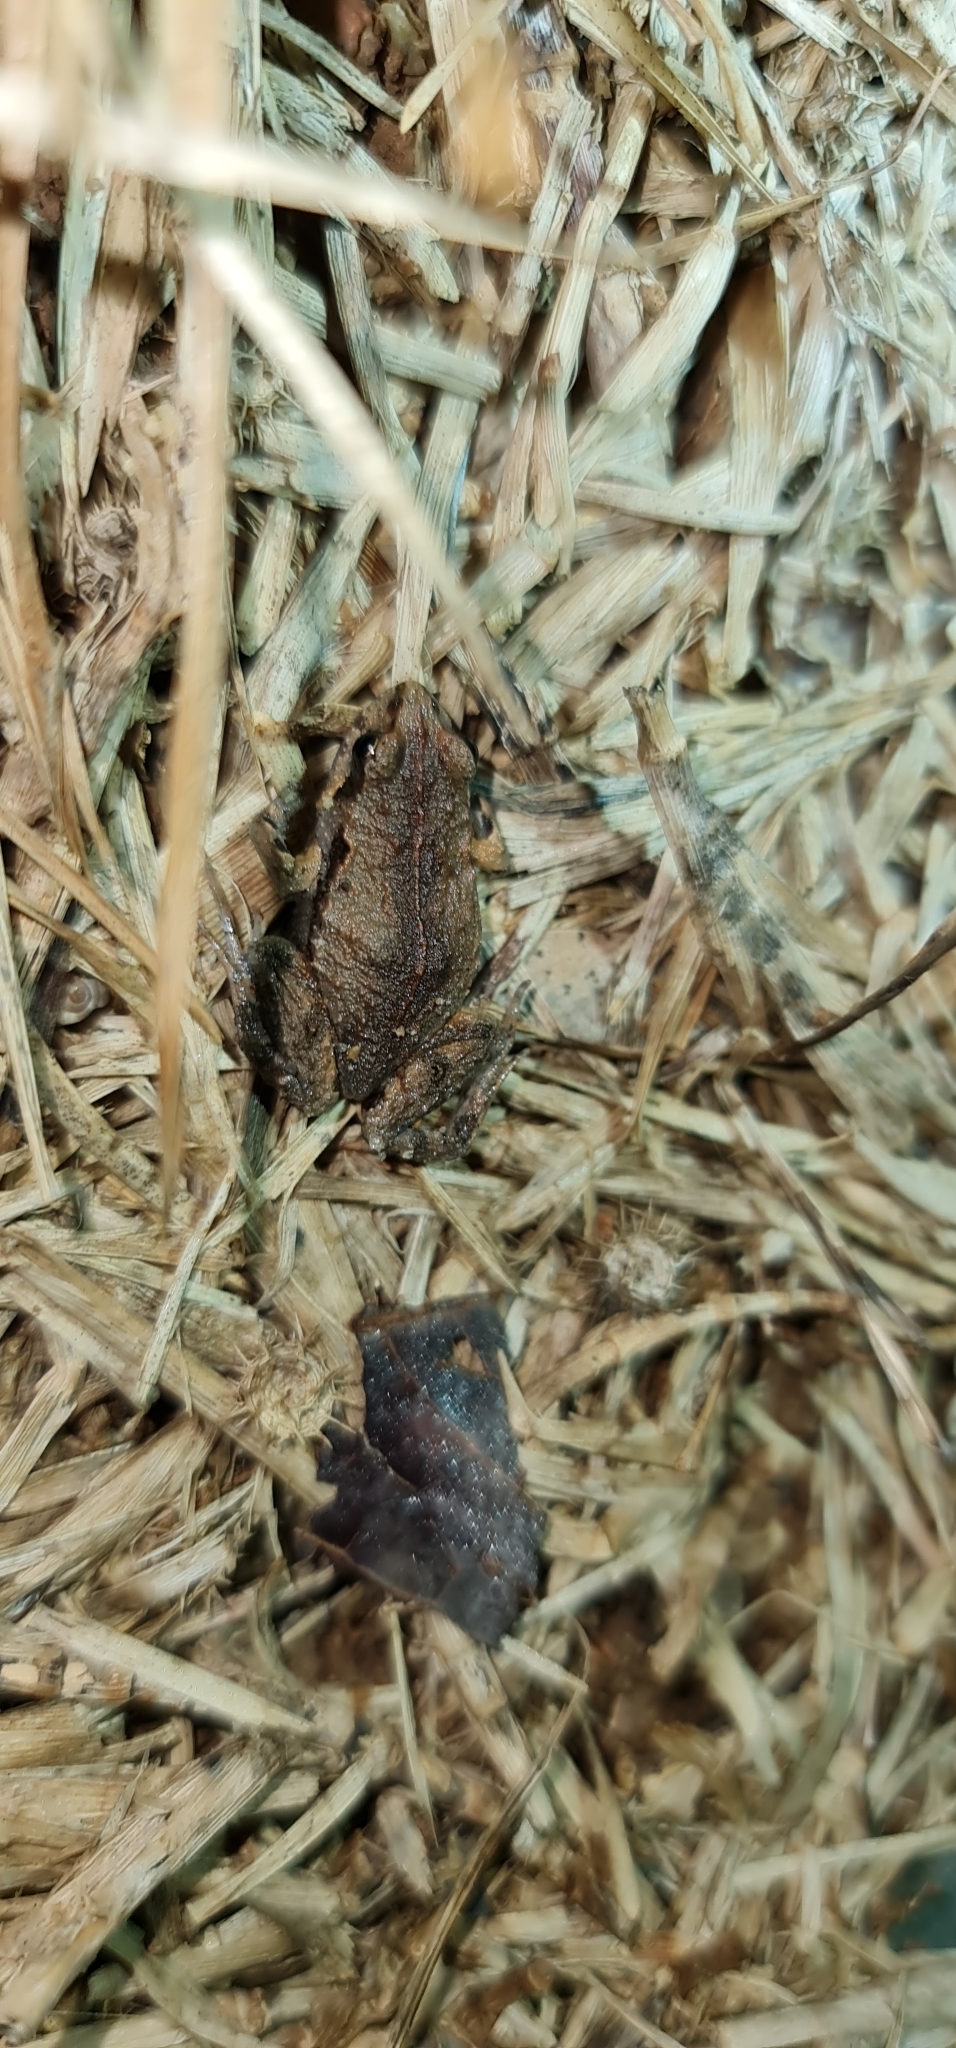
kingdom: Animalia
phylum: Chordata
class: Amphibia
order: Anura
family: Myobatrachidae
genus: Crinia
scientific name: Crinia signifera
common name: Brown froglet
